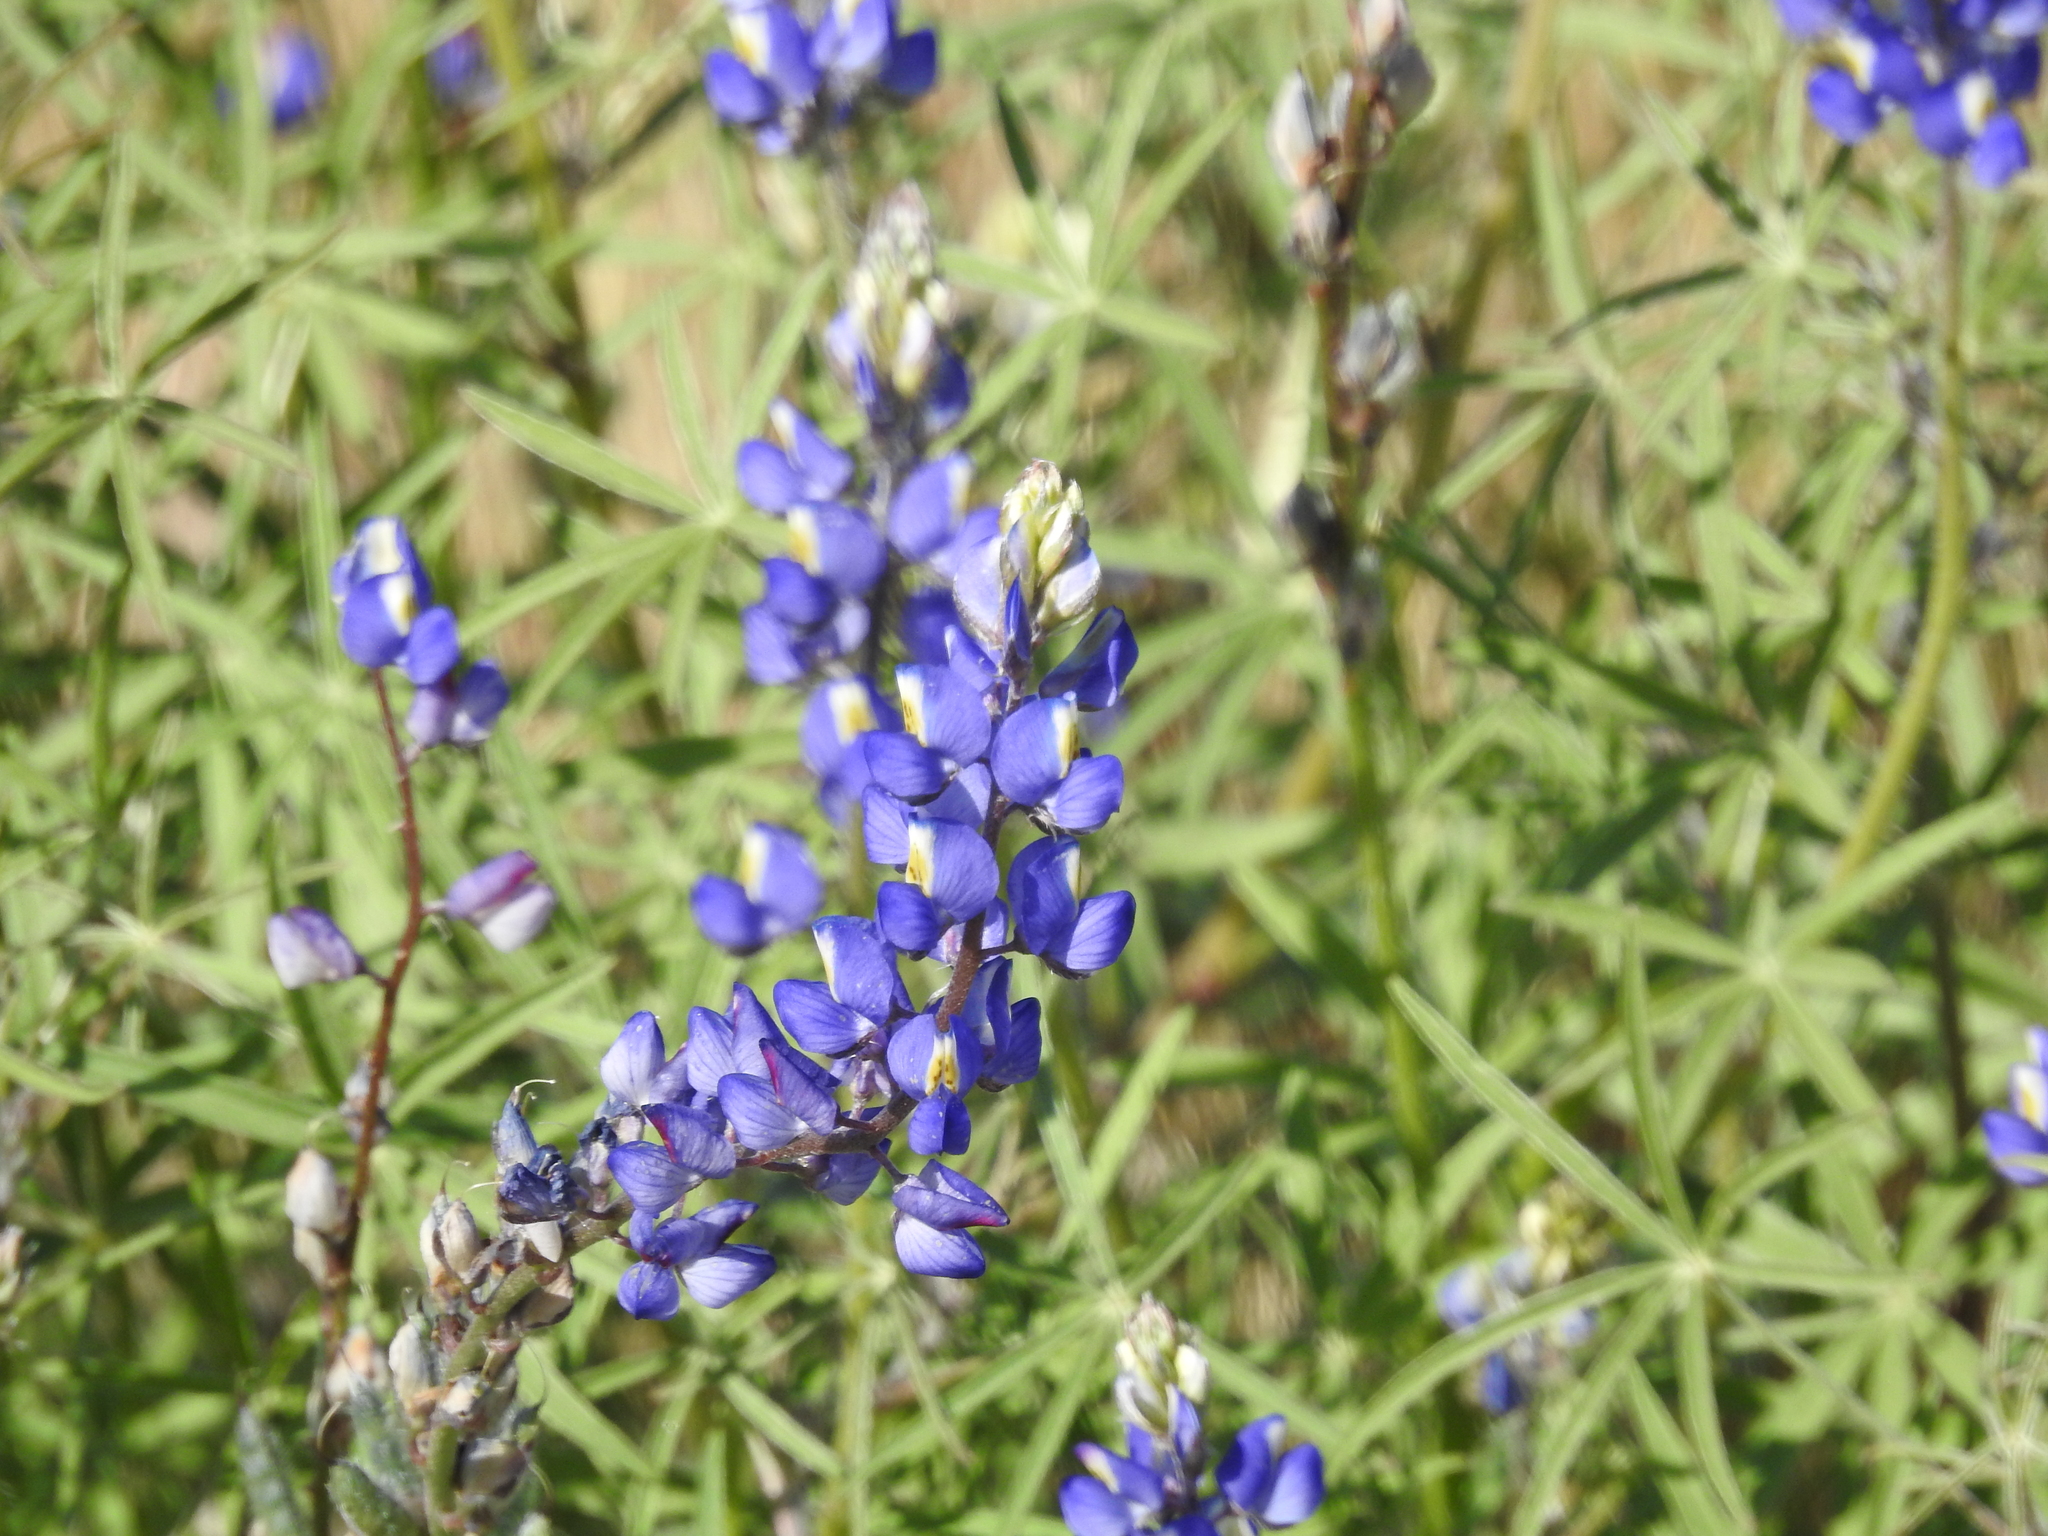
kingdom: Plantae
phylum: Tracheophyta
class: Magnoliopsida
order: Fabales
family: Fabaceae
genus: Lupinus
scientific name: Lupinus sparsiflorus
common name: Coulter's lupine
